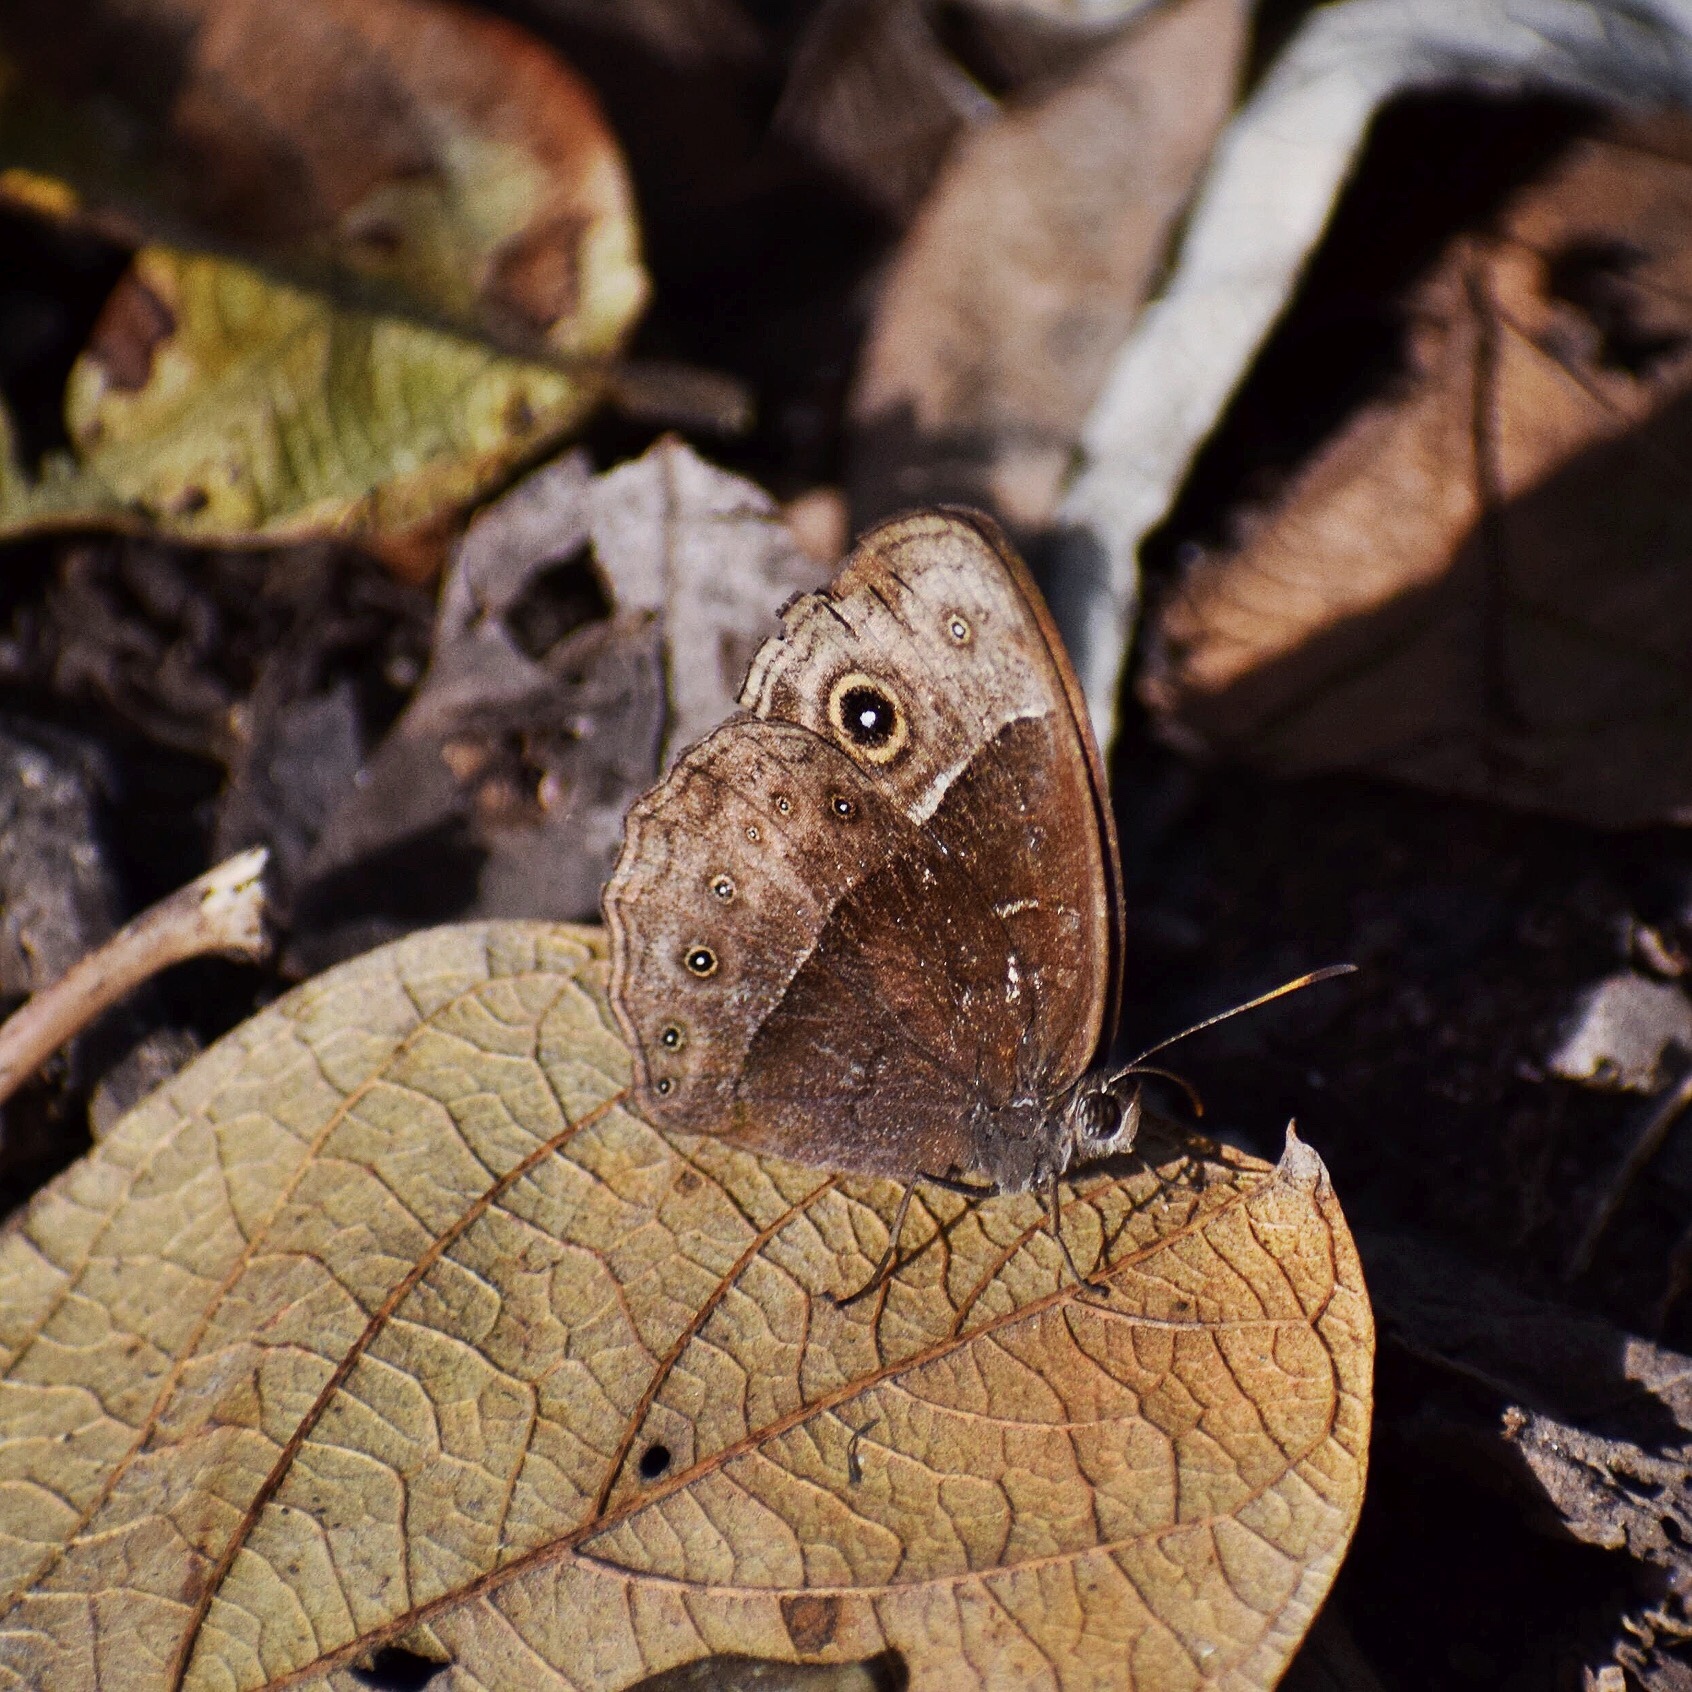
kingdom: Animalia
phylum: Arthropoda
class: Insecta
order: Lepidoptera
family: Nymphalidae
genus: Mycalesis
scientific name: Mycalesis rhacotis
